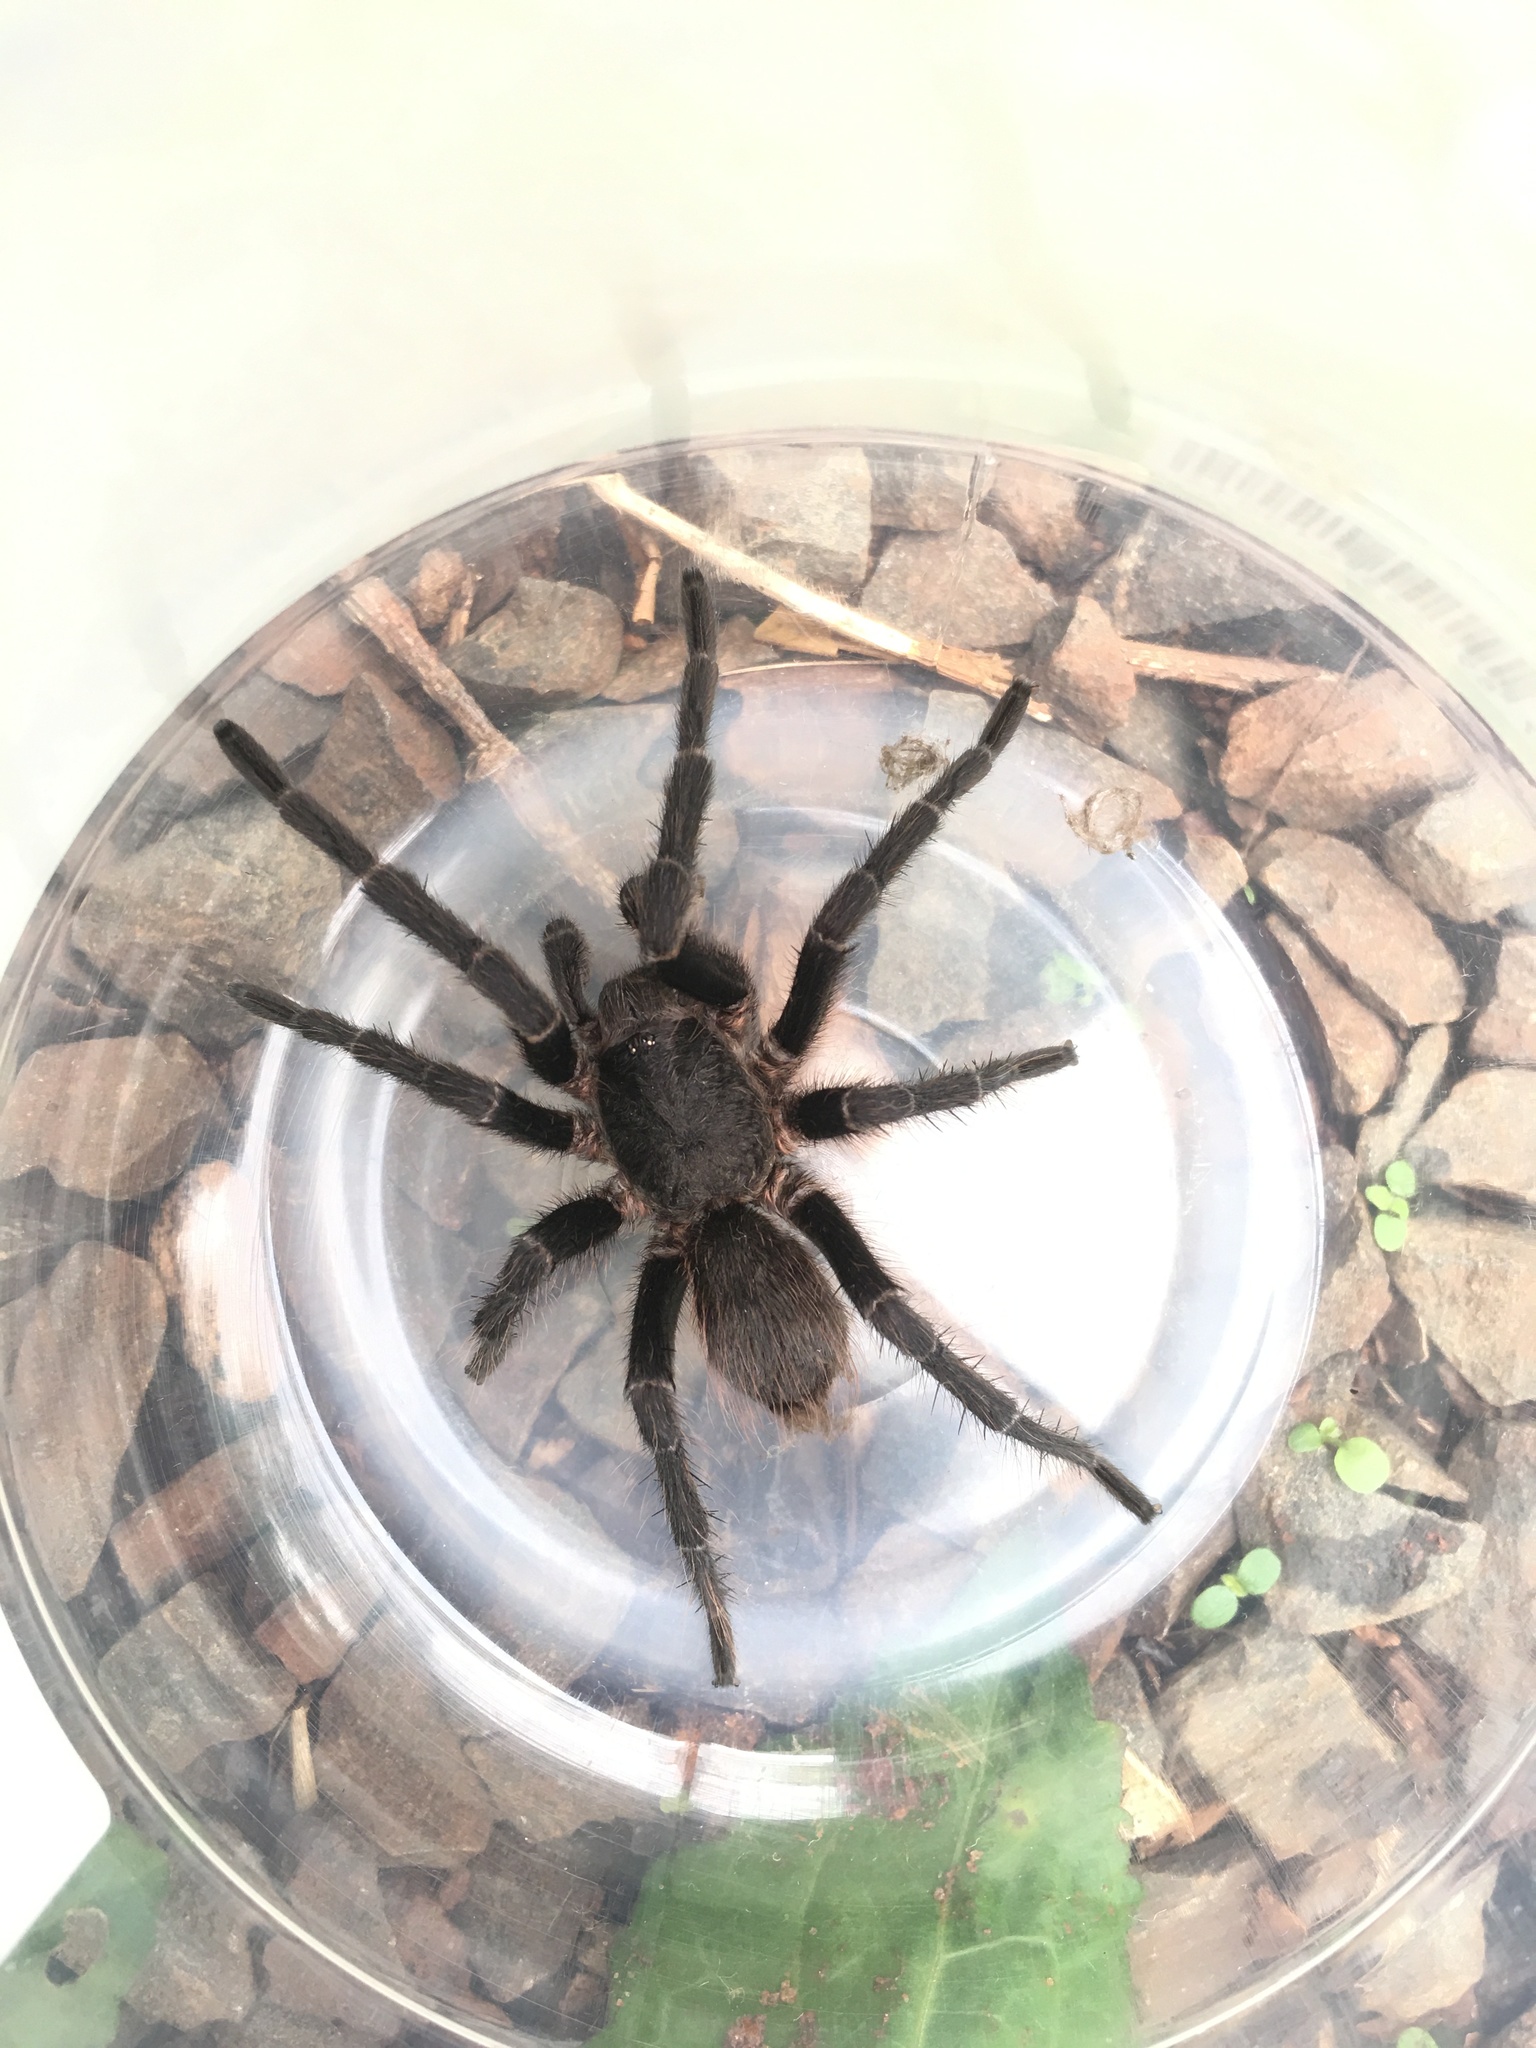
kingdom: Animalia
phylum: Arthropoda
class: Arachnida
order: Araneae
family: Theraphosidae
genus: Pterinopelma
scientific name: Pterinopelma longisternale
